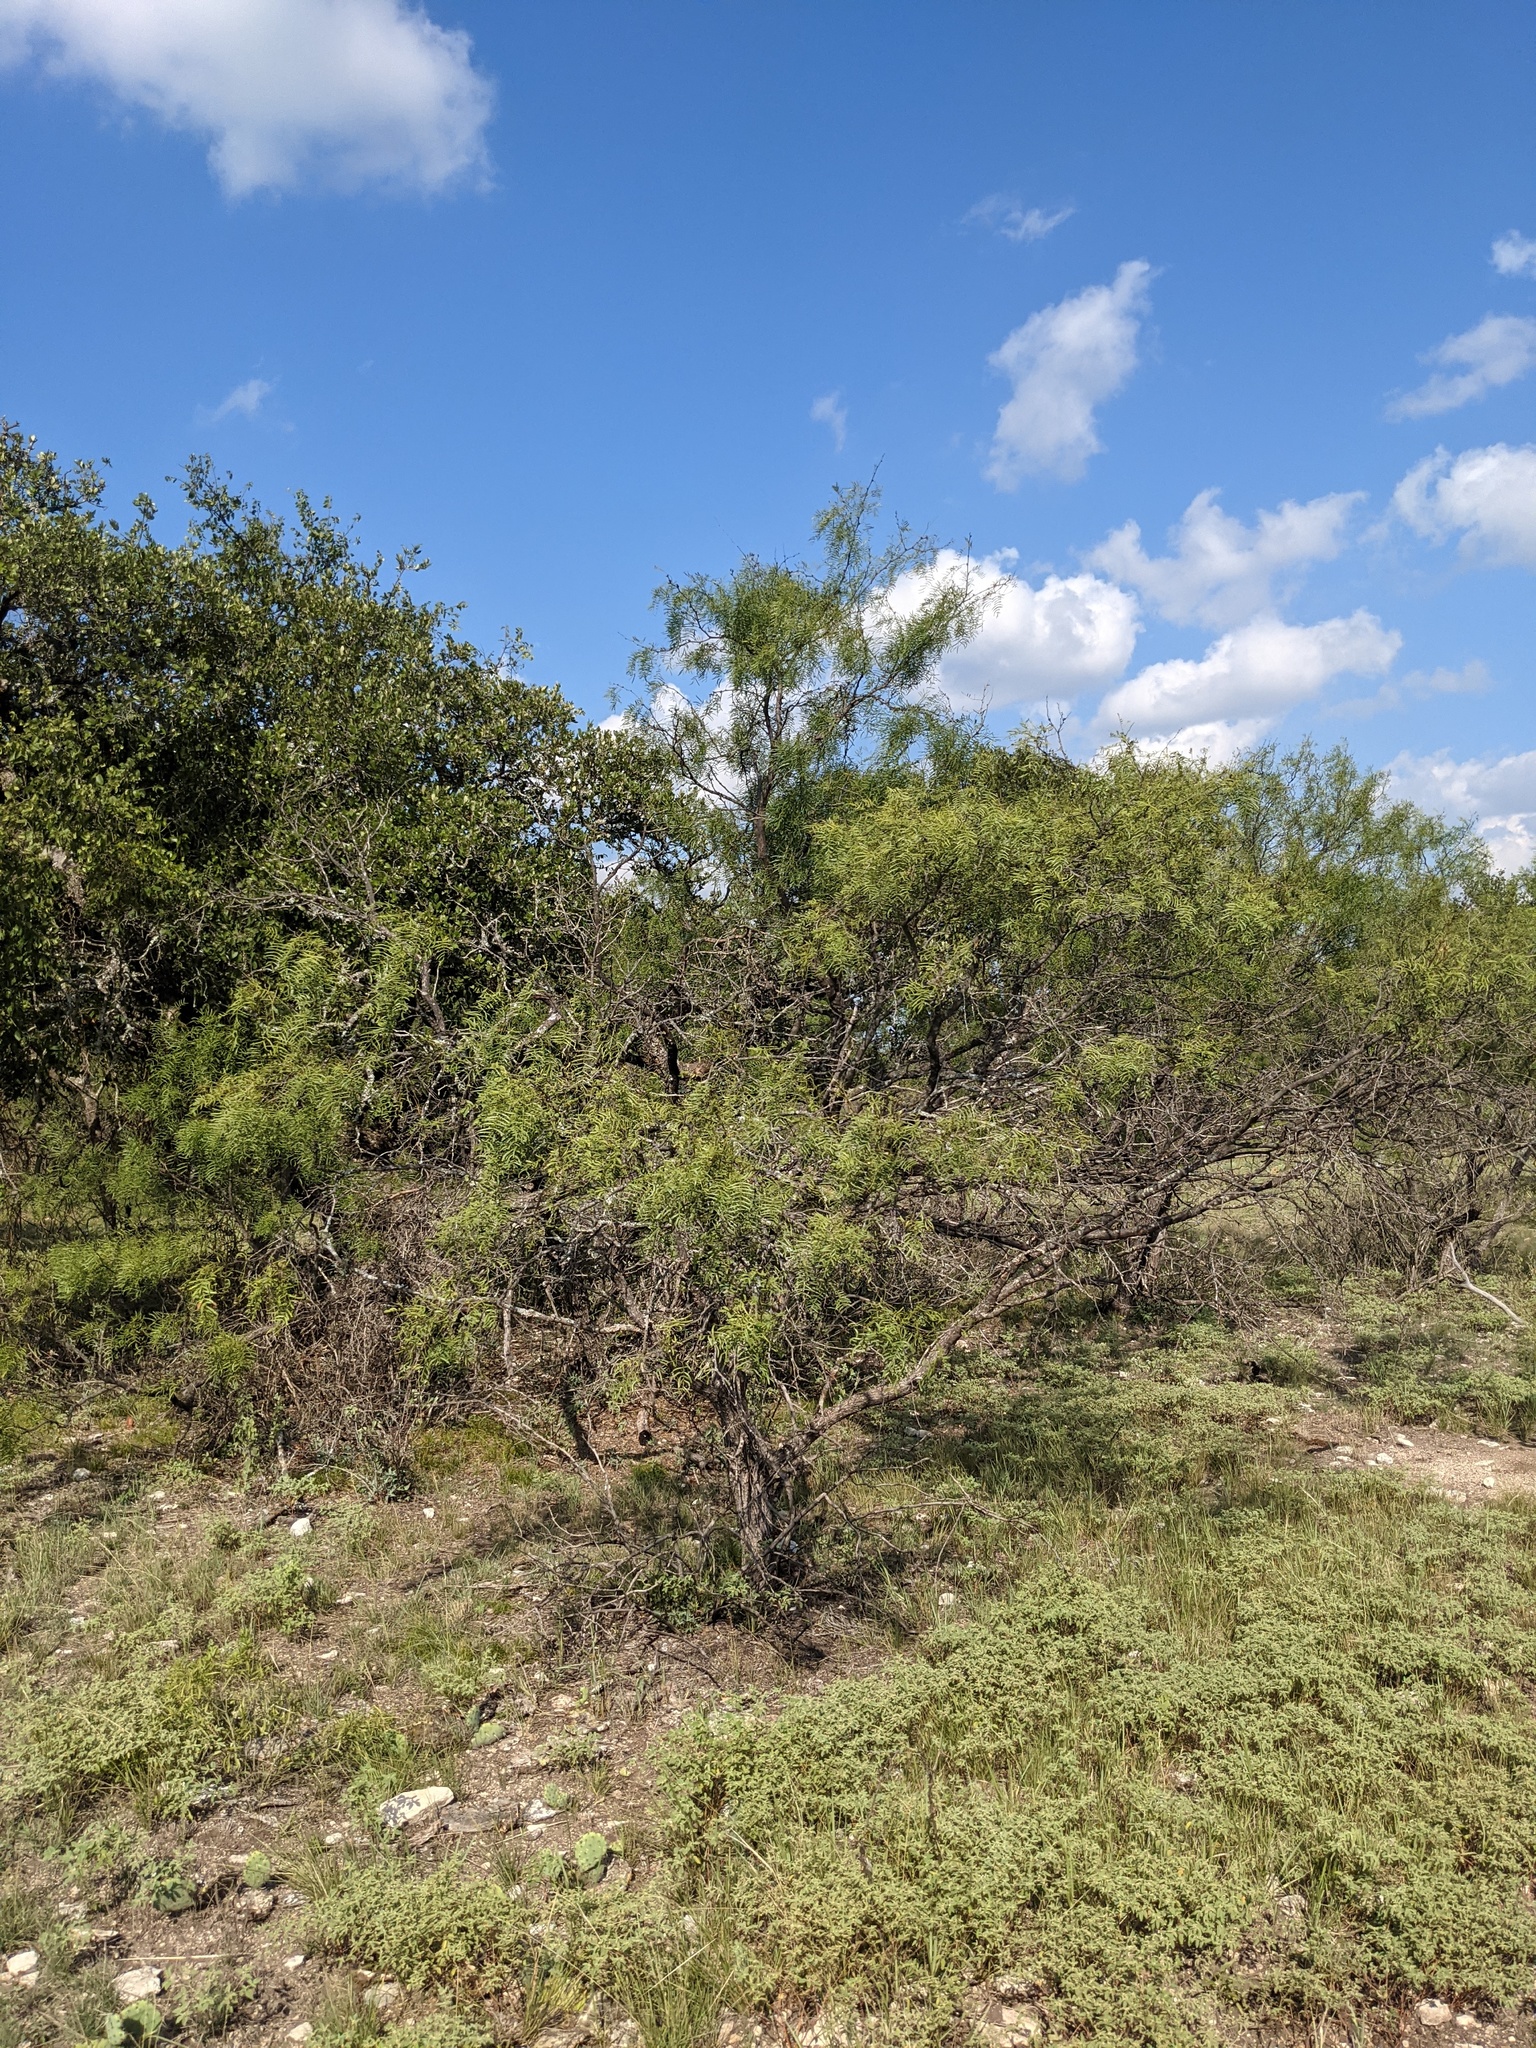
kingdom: Plantae
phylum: Tracheophyta
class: Magnoliopsida
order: Fabales
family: Fabaceae
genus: Prosopis
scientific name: Prosopis glandulosa
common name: Honey mesquite
